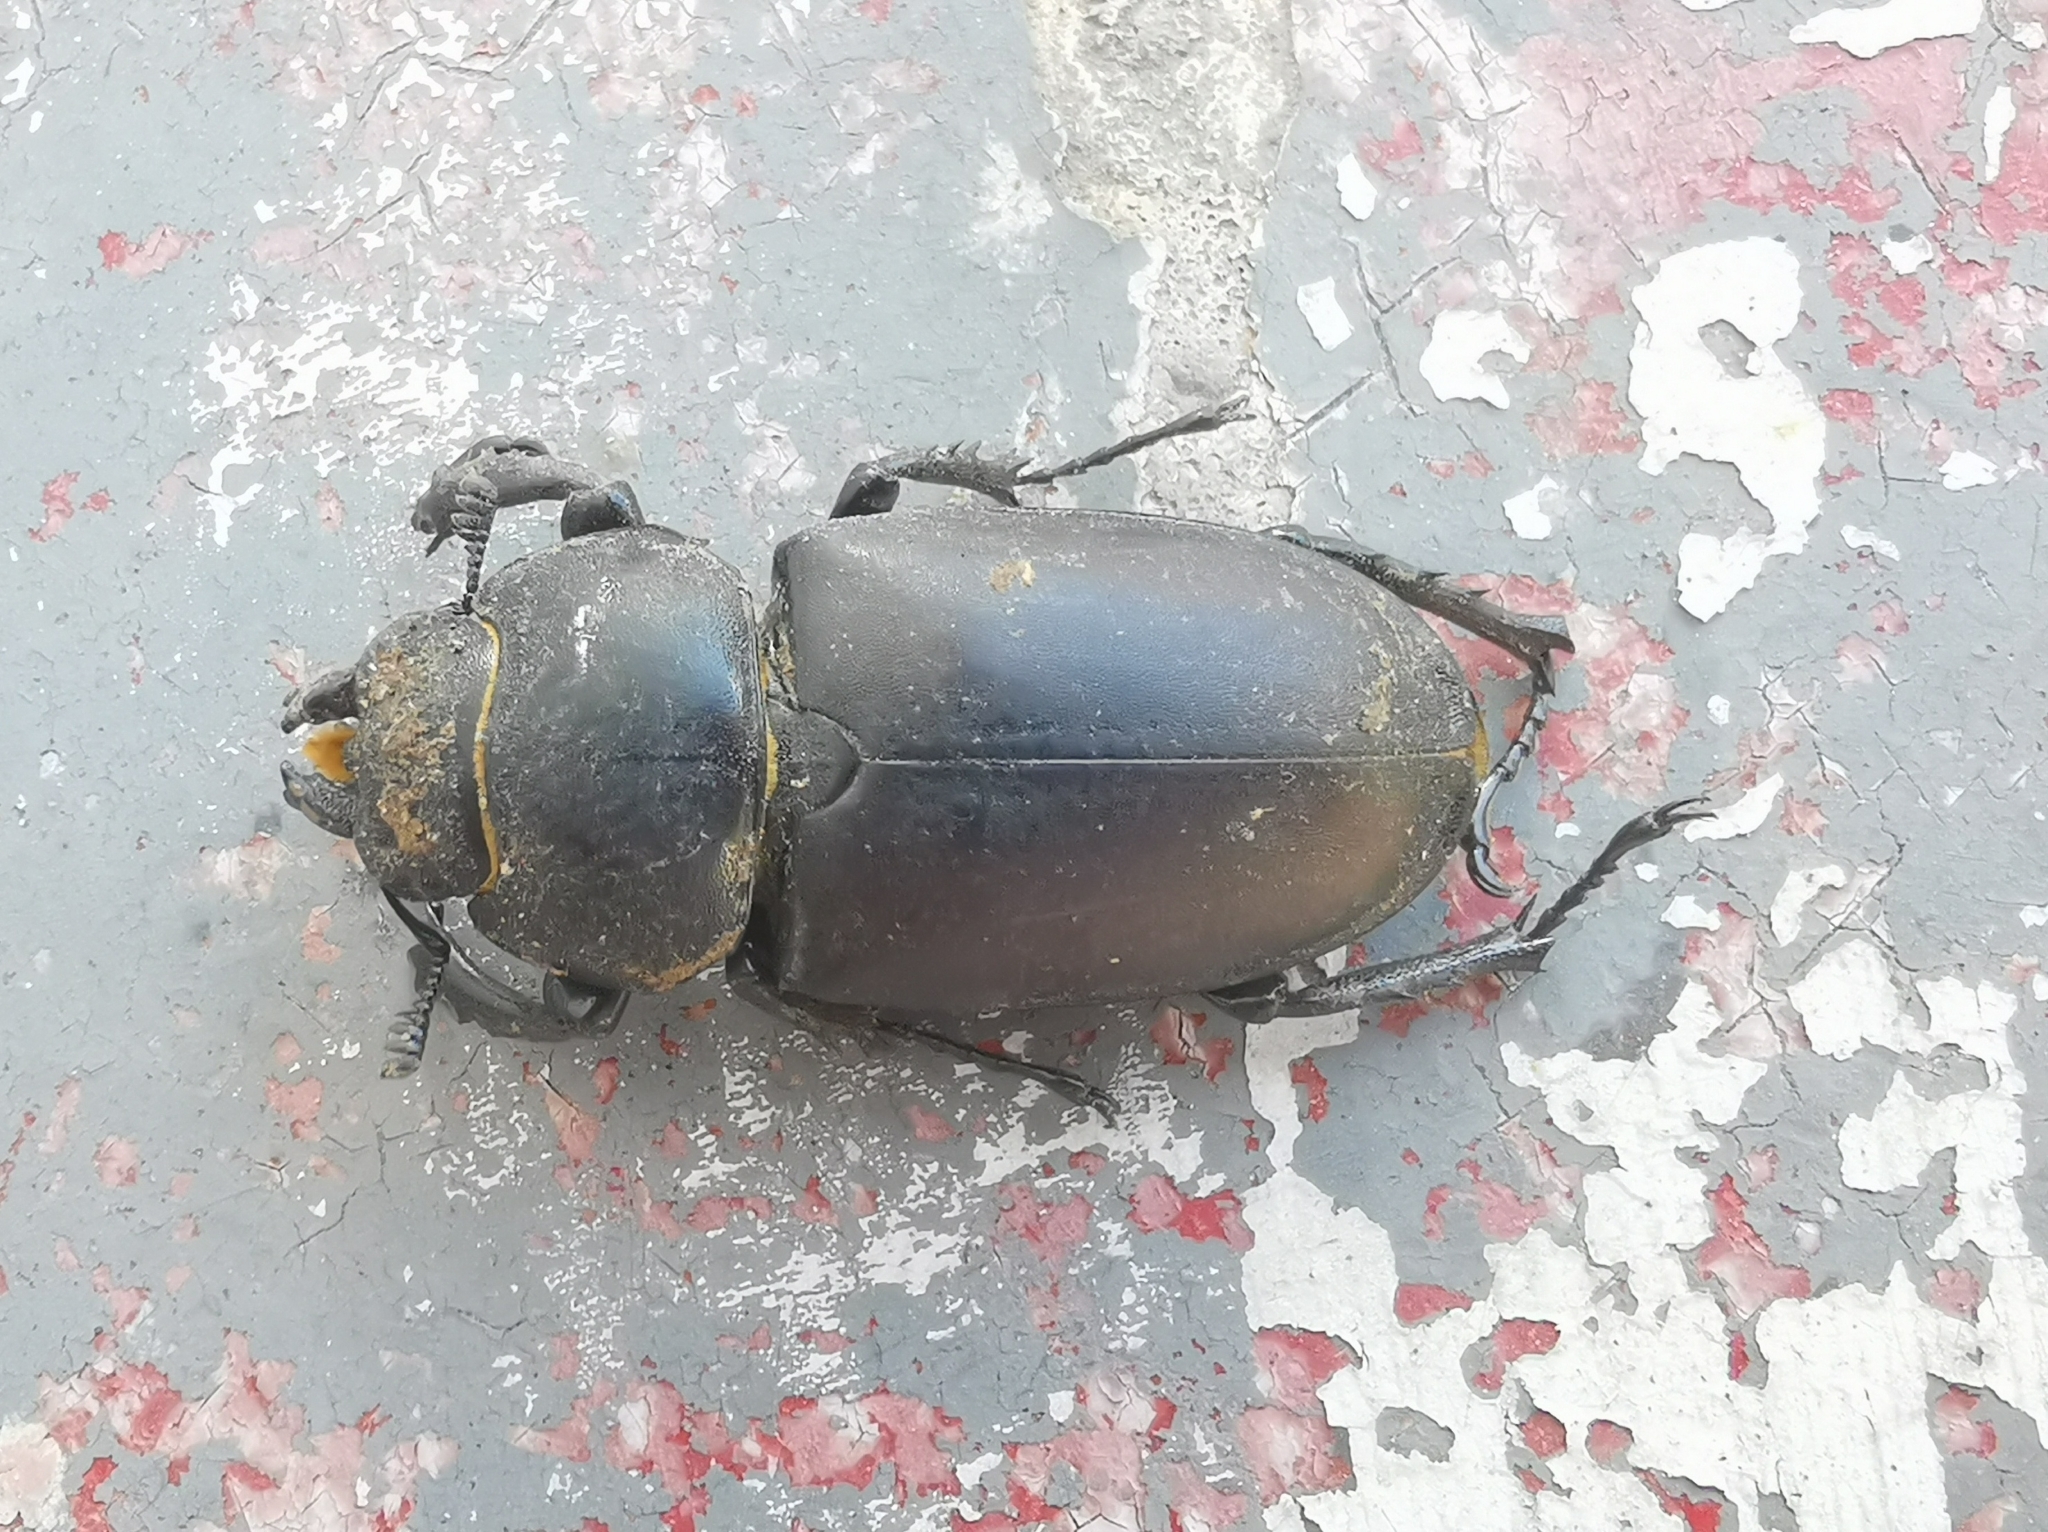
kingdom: Animalia
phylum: Arthropoda
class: Insecta
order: Coleoptera
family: Lucanidae
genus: Lucanus
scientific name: Lucanus cervus
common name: Stag beetle
